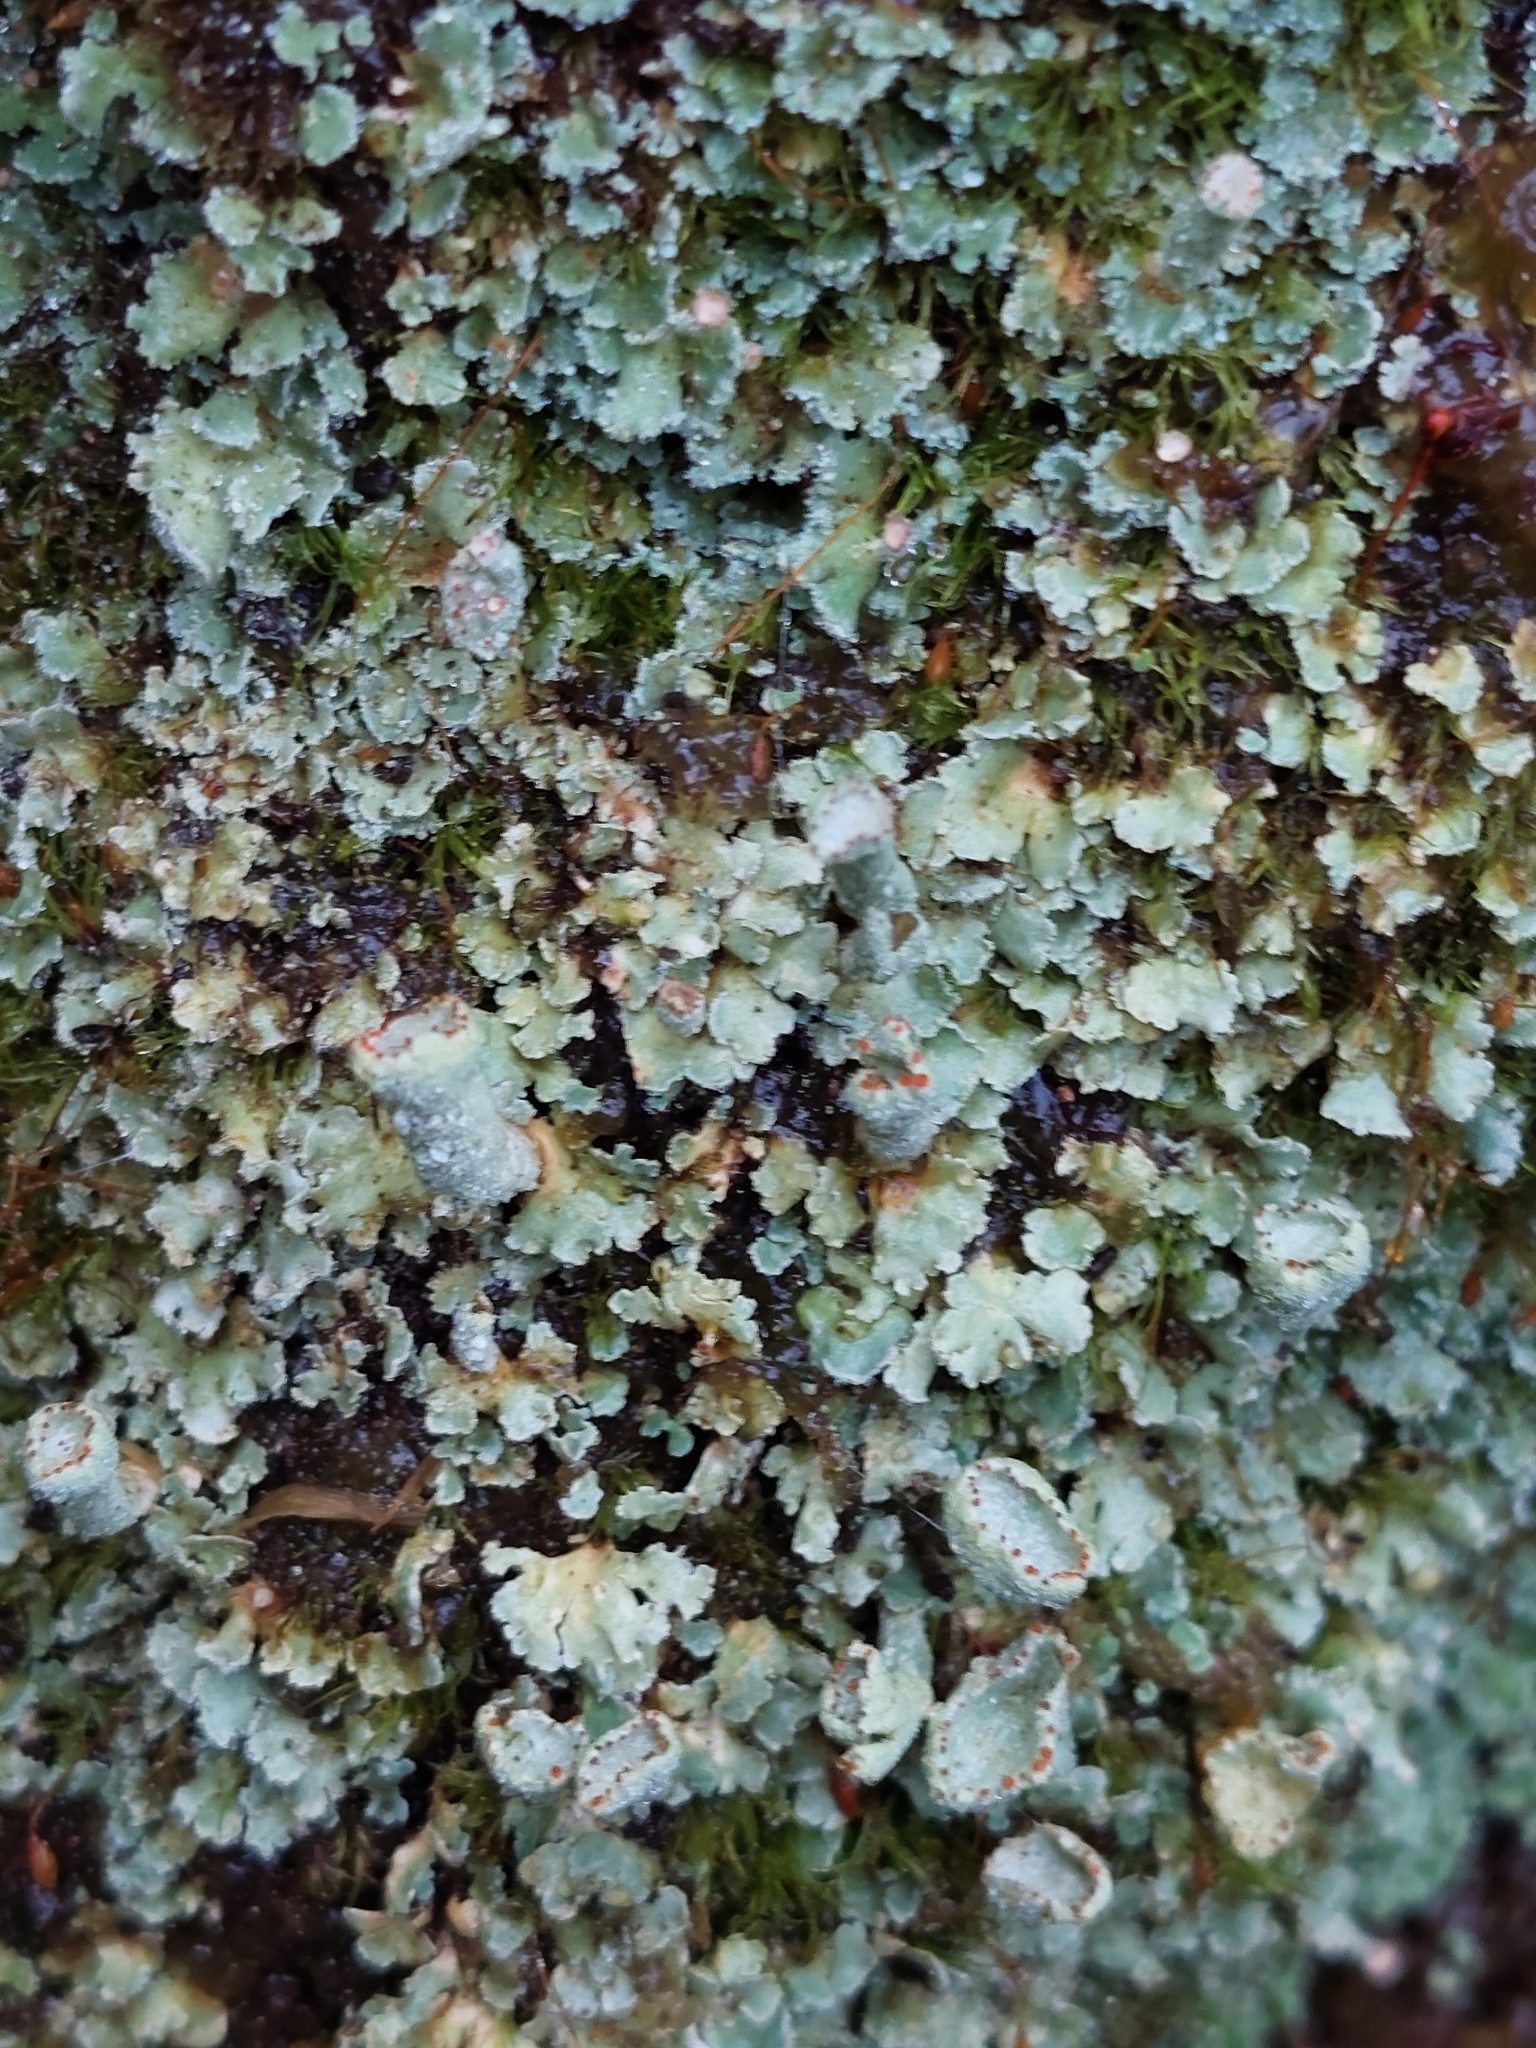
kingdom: Fungi
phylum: Ascomycota
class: Lecanoromycetes
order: Lecanorales
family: Cladoniaceae
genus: Cladonia
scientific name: Cladonia digitata
